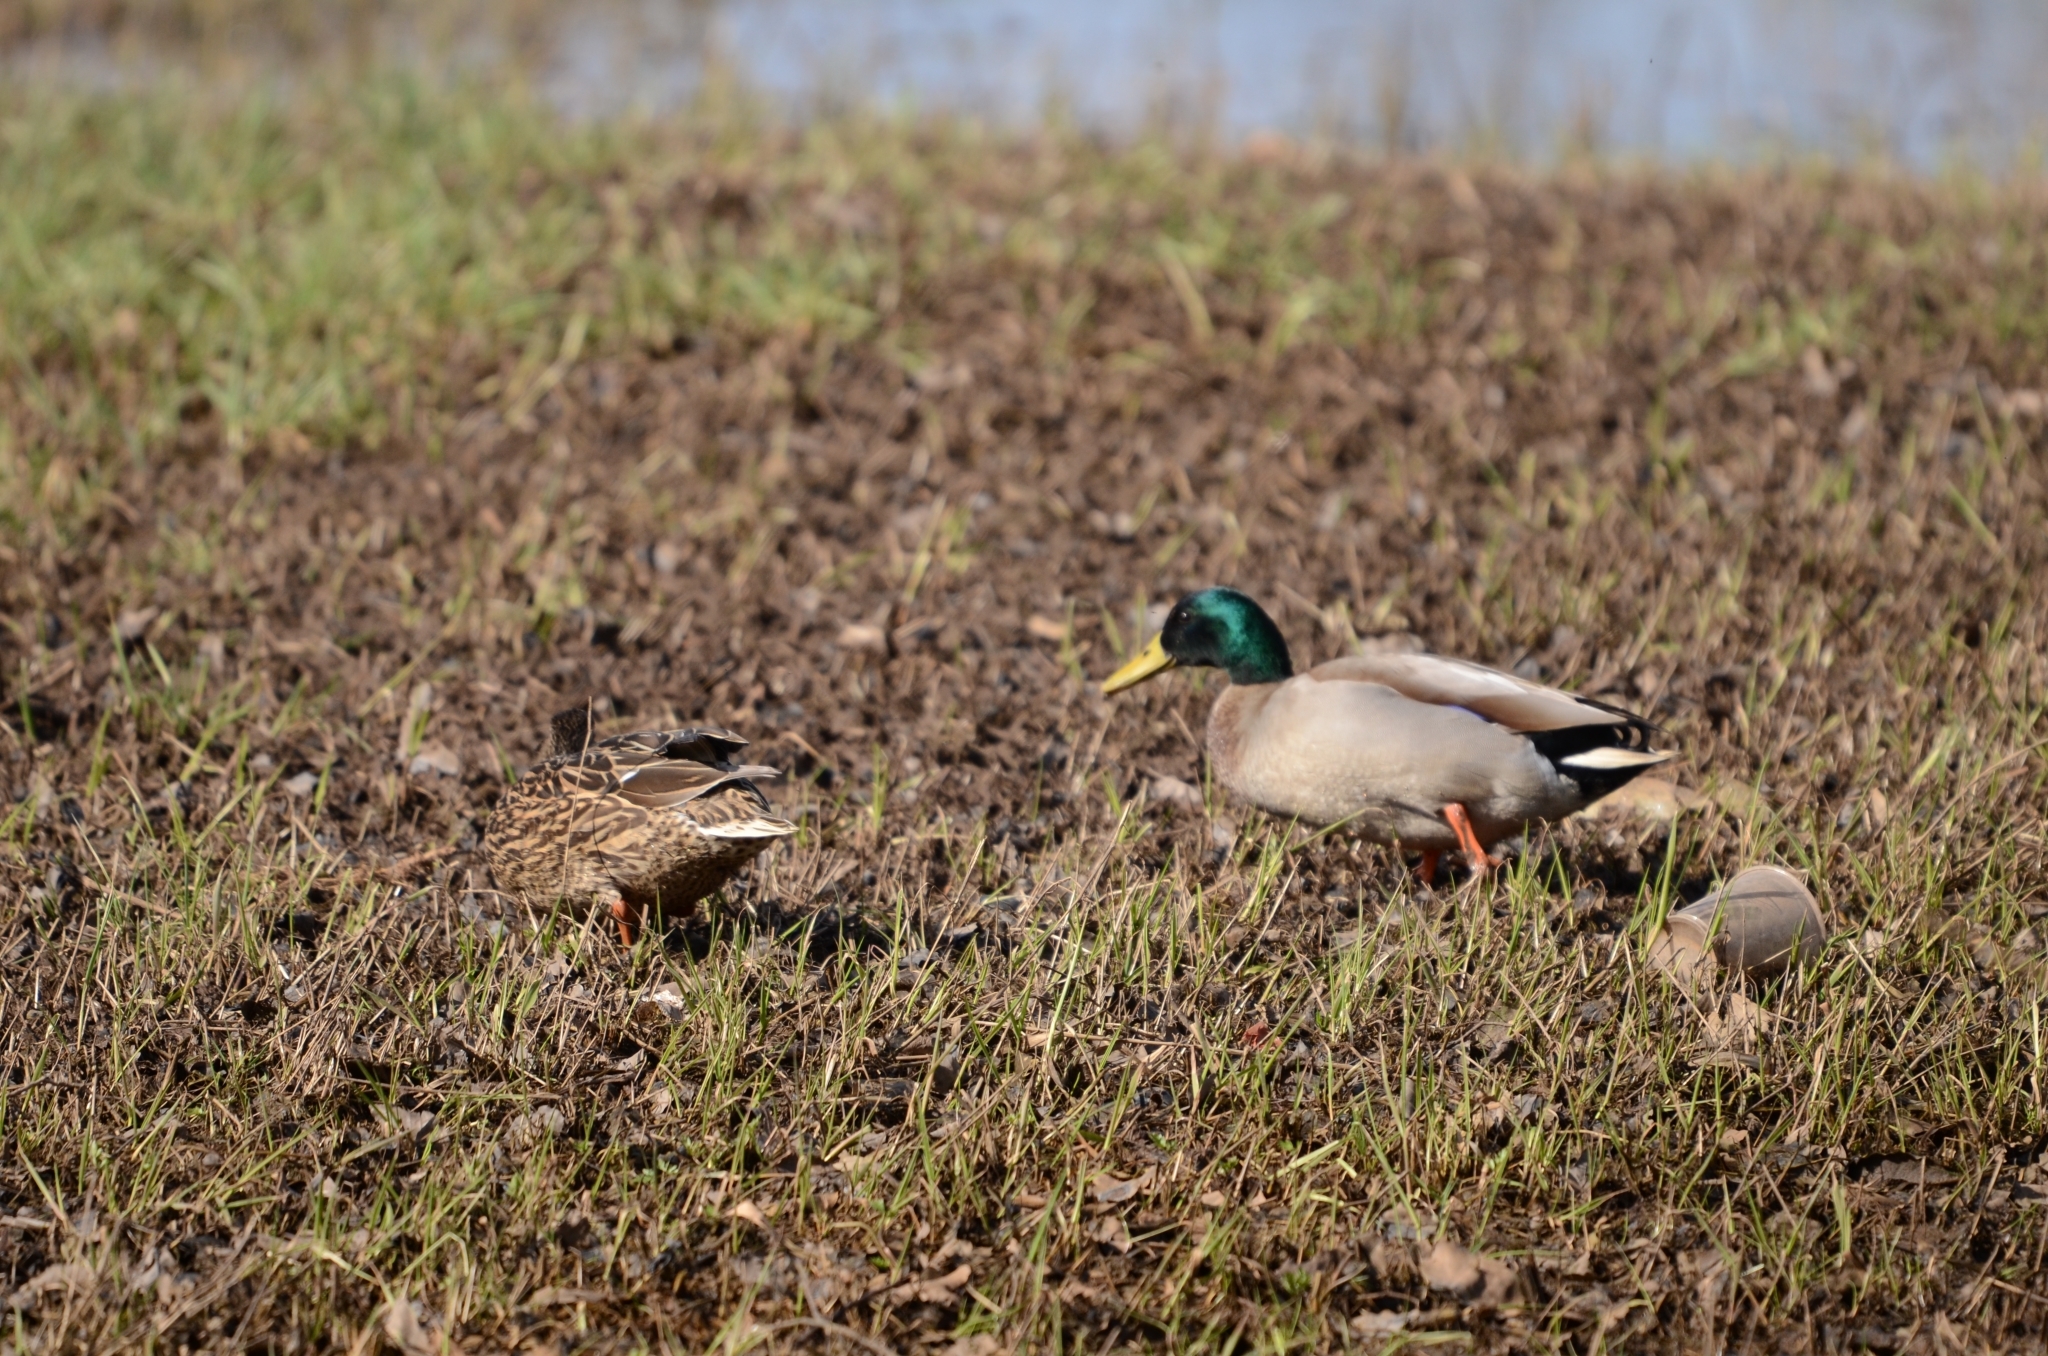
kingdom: Animalia
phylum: Chordata
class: Aves
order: Anseriformes
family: Anatidae
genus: Anas
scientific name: Anas platyrhynchos
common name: Mallard
